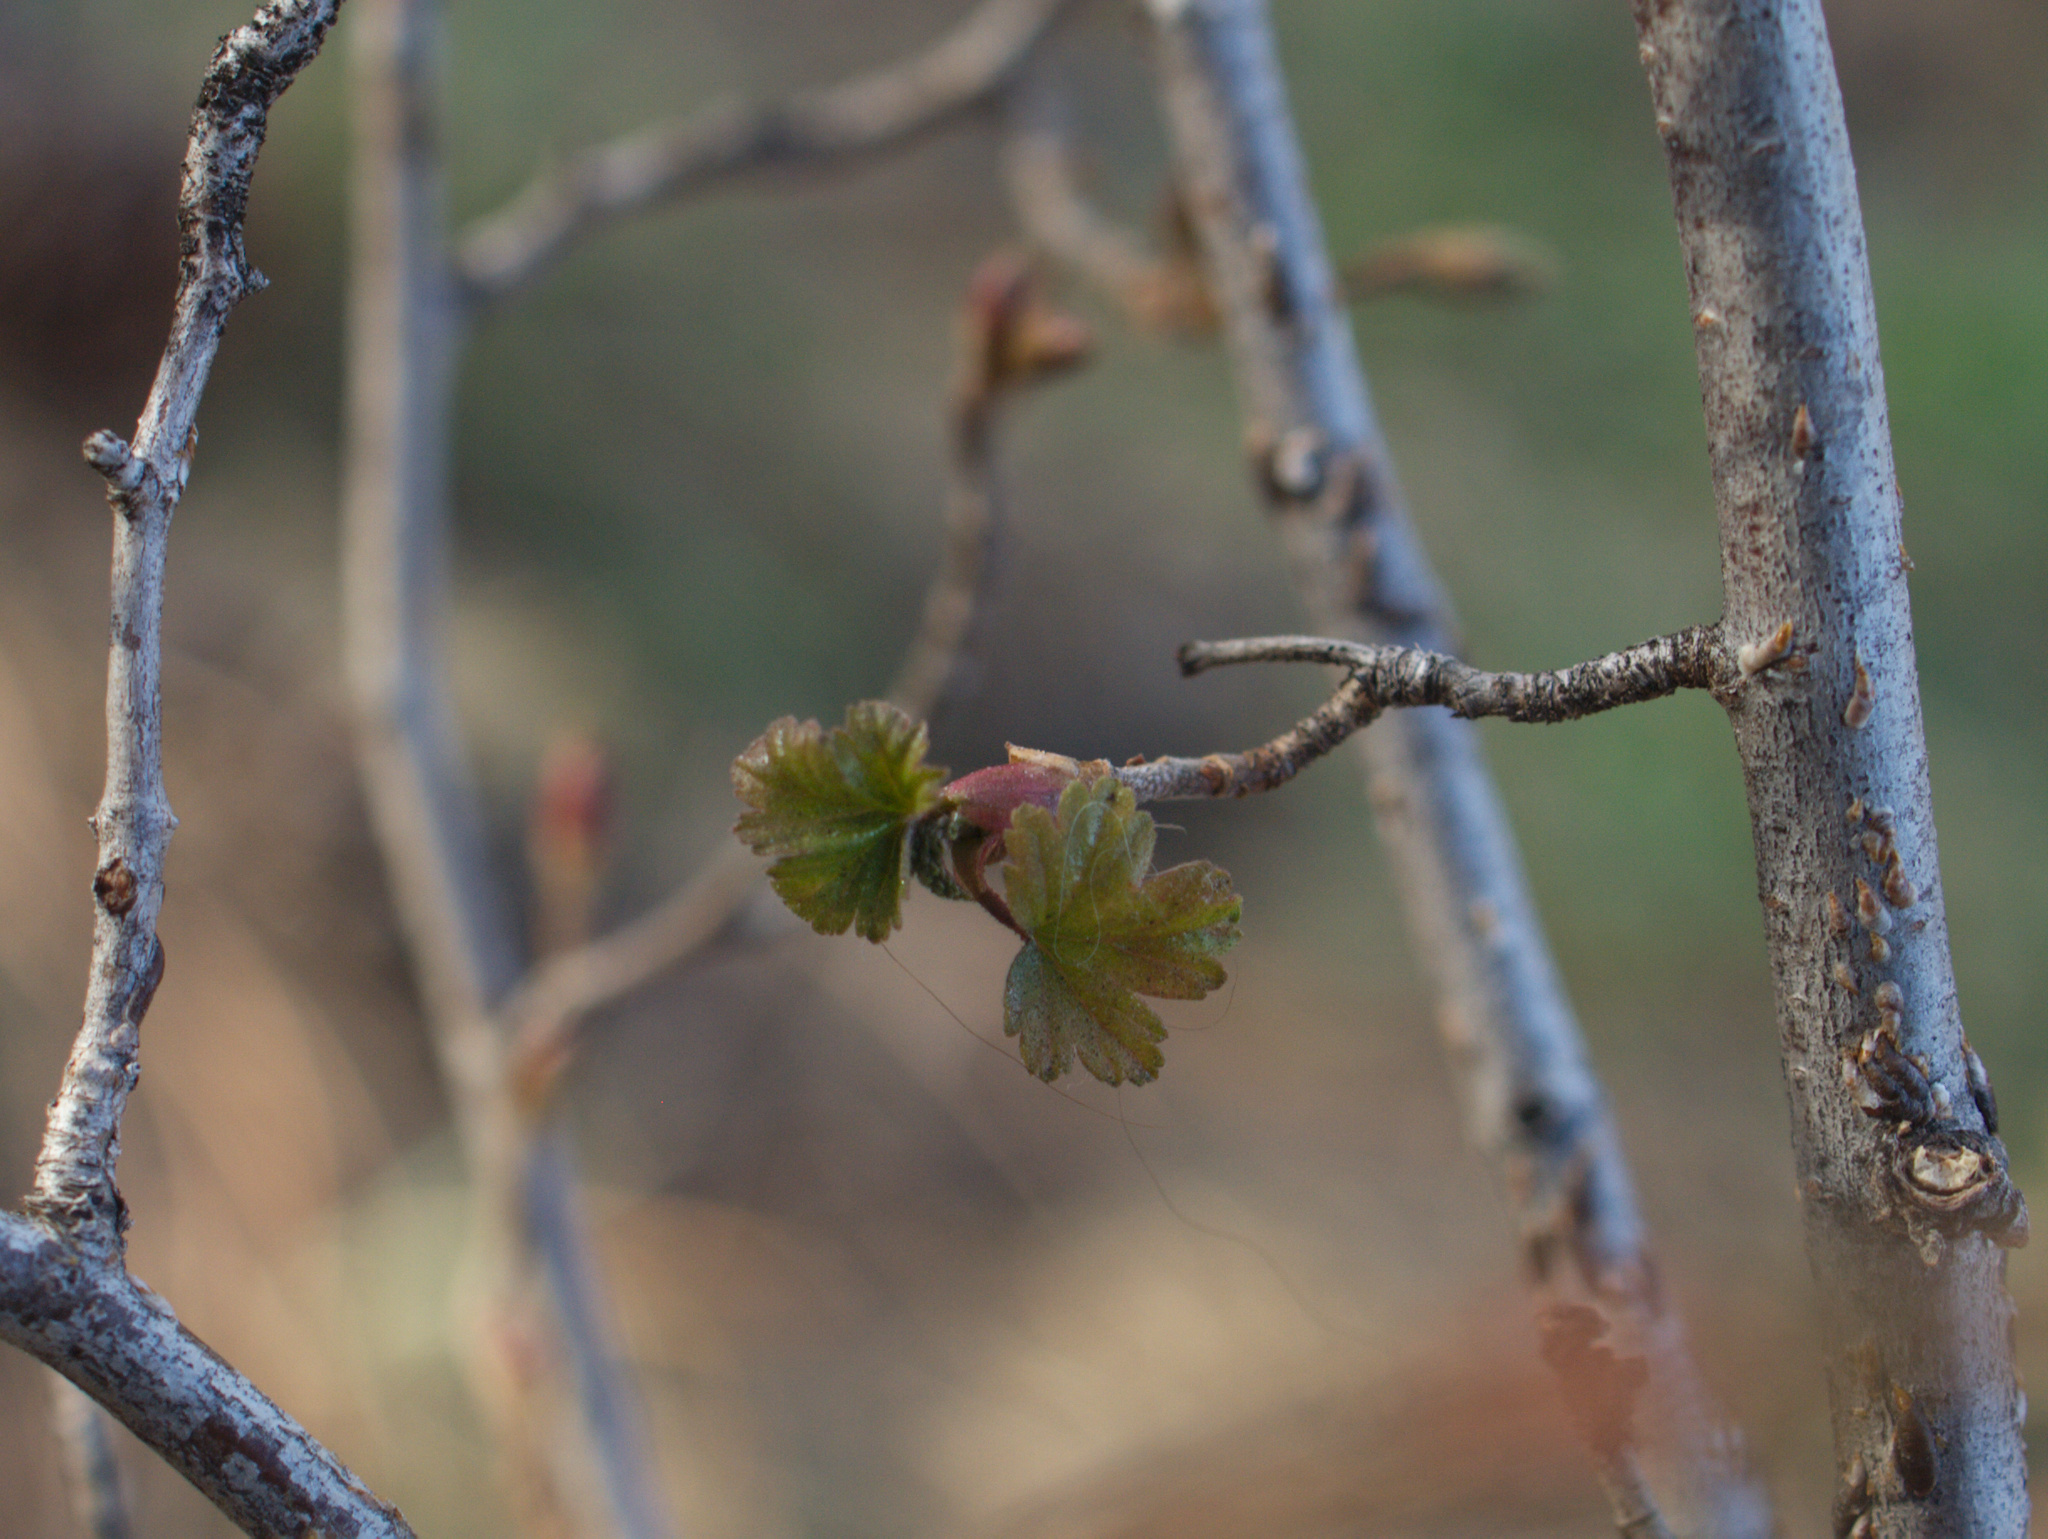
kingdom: Plantae
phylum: Tracheophyta
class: Magnoliopsida
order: Saxifragales
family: Grossulariaceae
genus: Ribes
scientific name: Ribes cereum
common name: Wax currant
